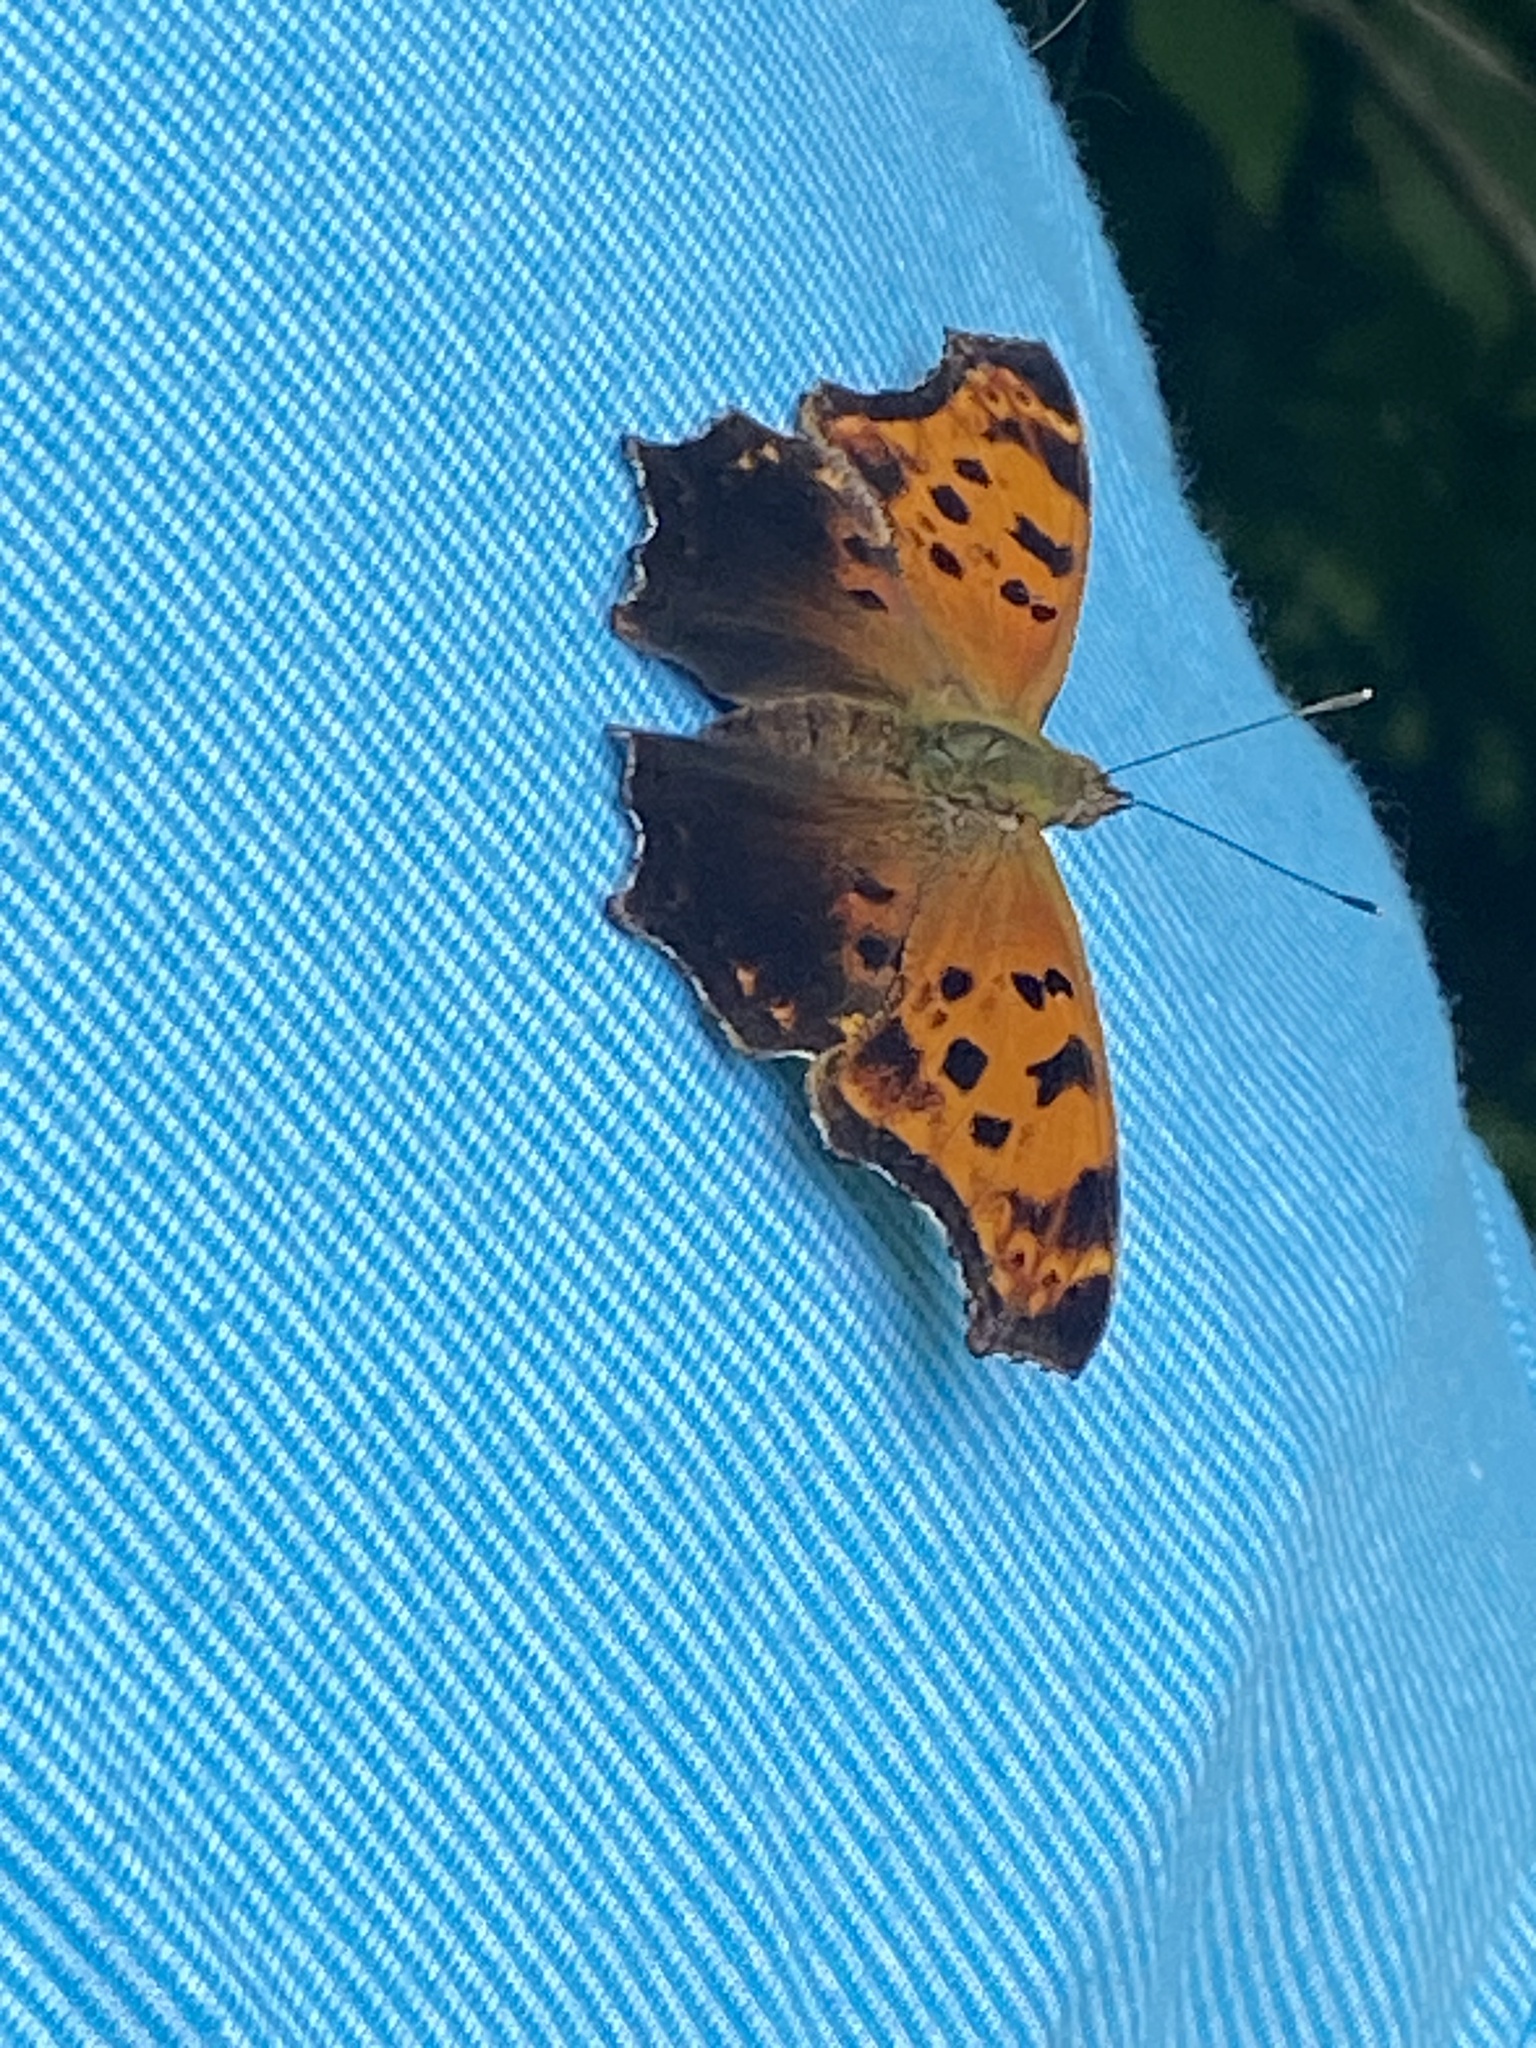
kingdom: Animalia
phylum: Arthropoda
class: Insecta
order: Lepidoptera
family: Nymphalidae
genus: Polygonia
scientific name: Polygonia comma
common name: Eastern comma
